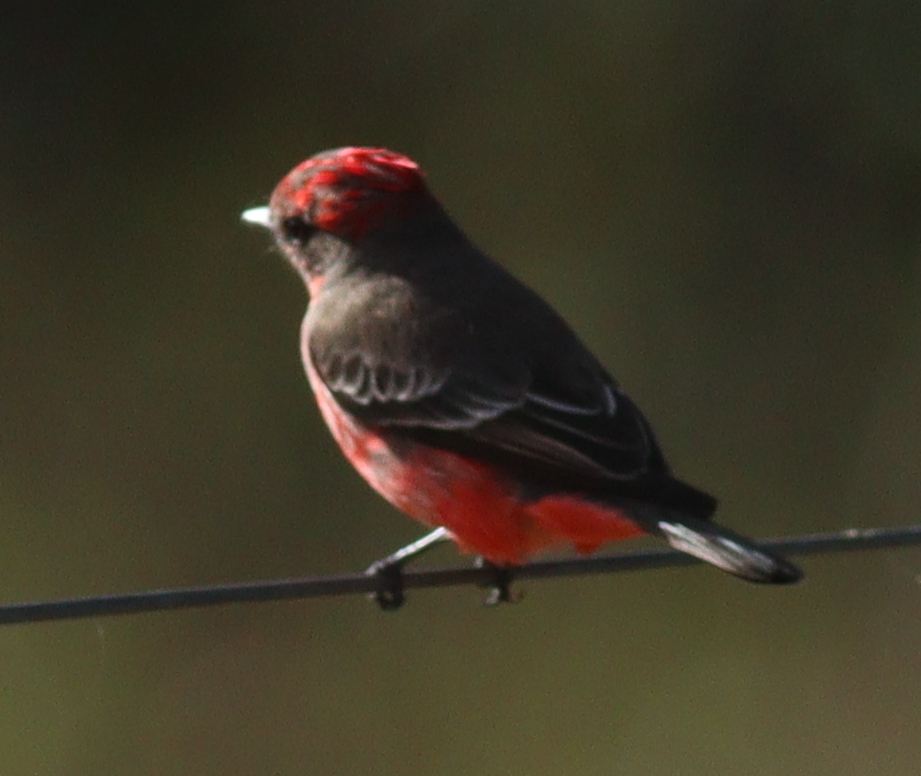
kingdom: Animalia
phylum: Chordata
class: Aves
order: Passeriformes
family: Tyrannidae
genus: Pyrocephalus
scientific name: Pyrocephalus rubinus
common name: Vermilion flycatcher
